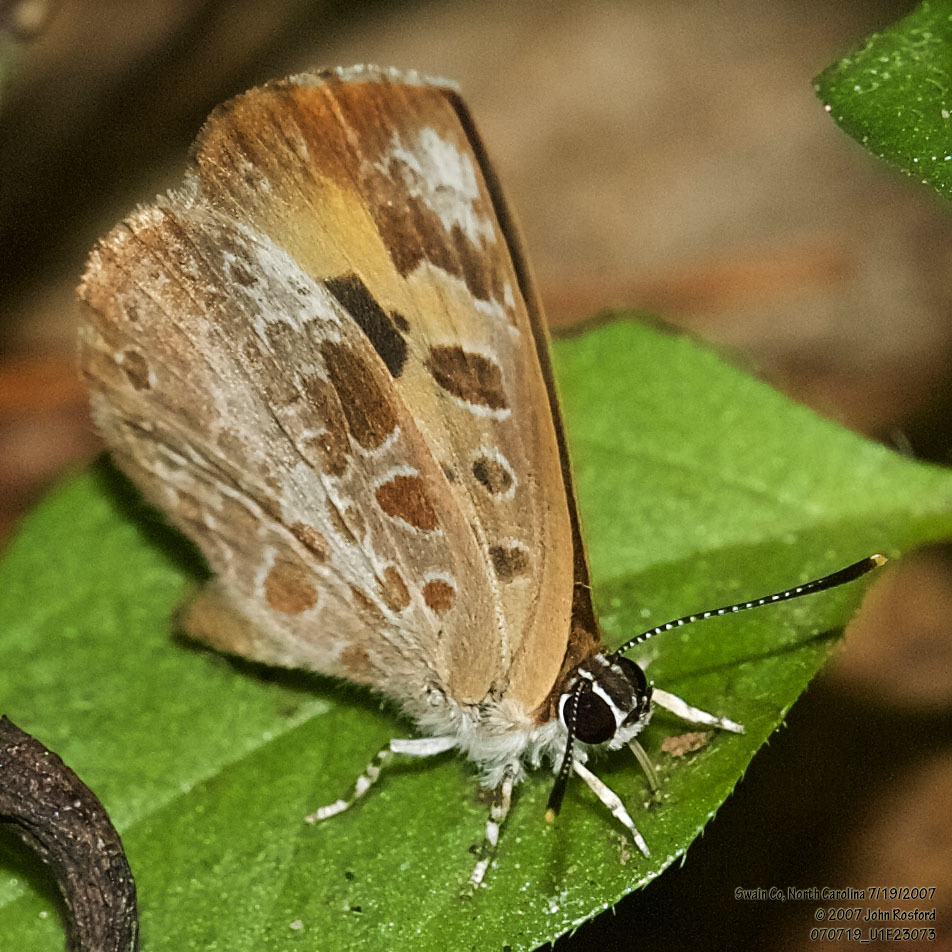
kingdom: Animalia
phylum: Arthropoda
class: Insecta
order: Lepidoptera
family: Lycaenidae
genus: Feniseca
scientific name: Feniseca tarquinius
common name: Harvester
